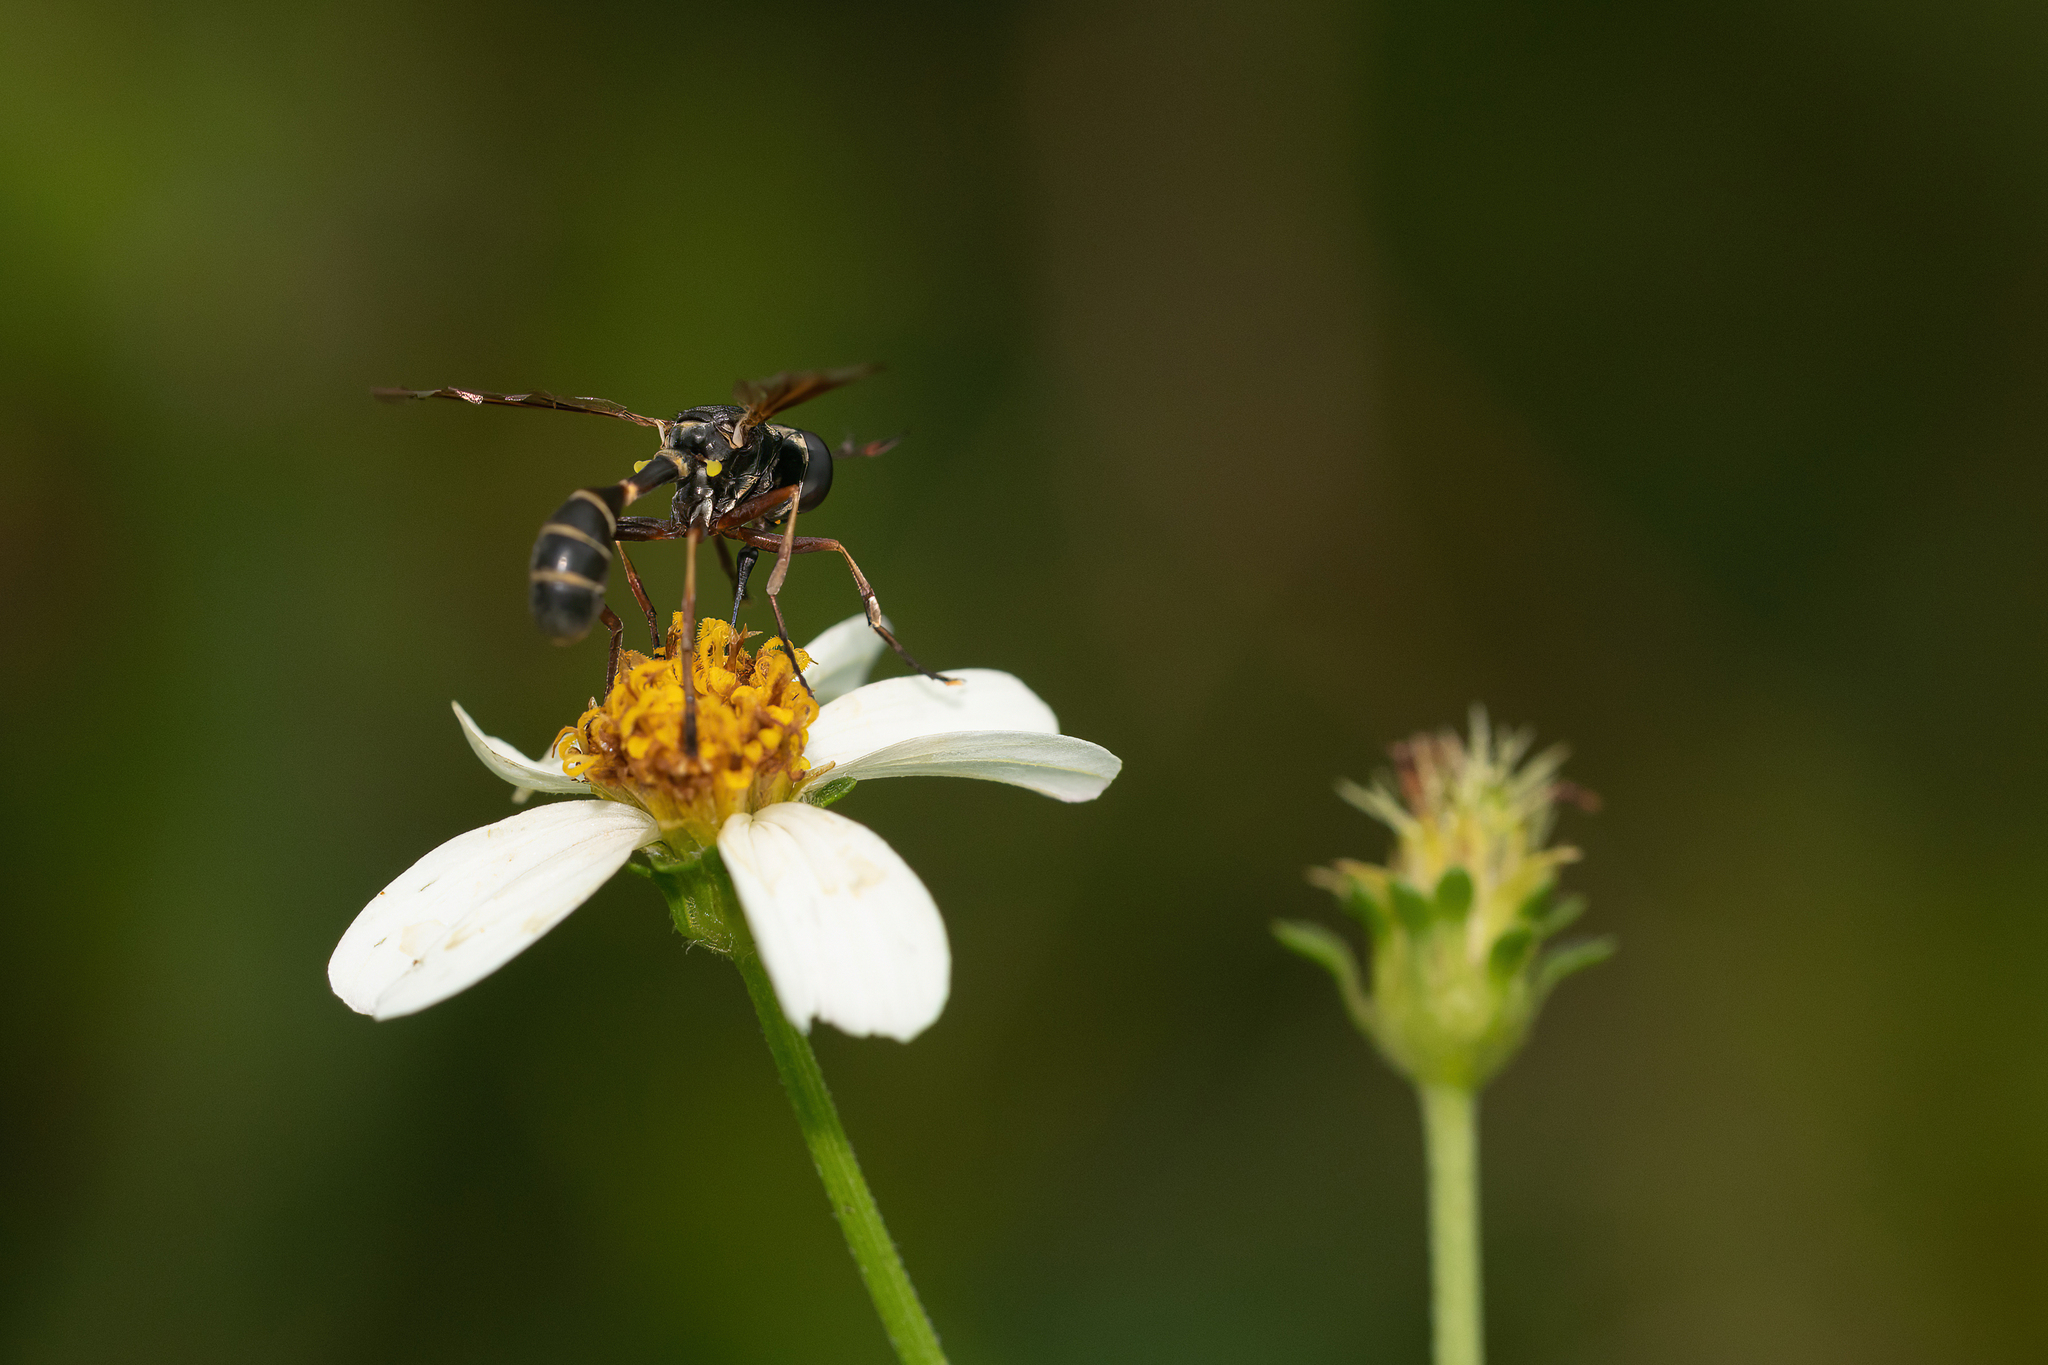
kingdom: Animalia
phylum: Arthropoda
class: Insecta
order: Diptera
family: Conopidae
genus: Physoconops
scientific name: Physoconops bulbirostris
